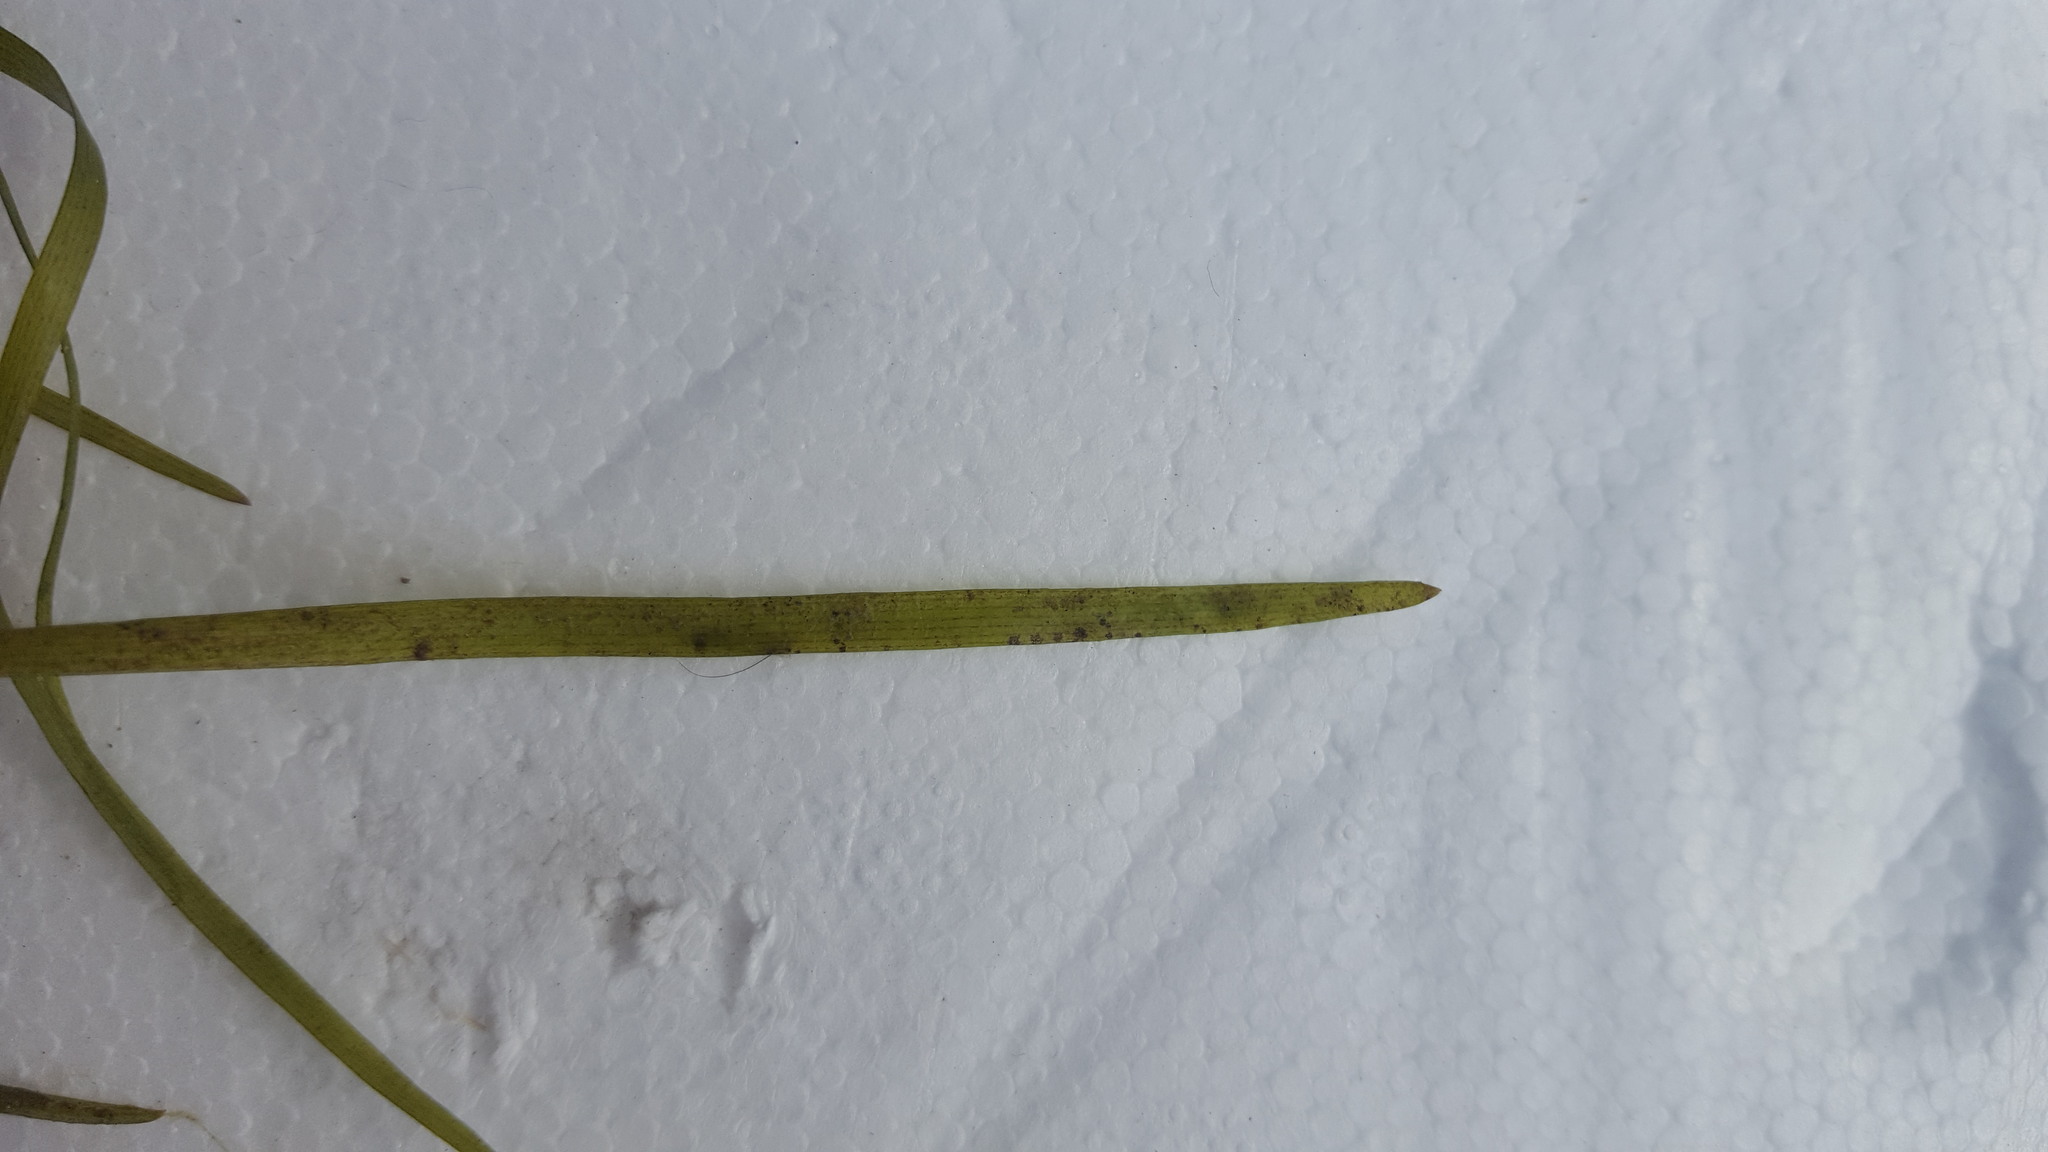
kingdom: Plantae
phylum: Tracheophyta
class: Liliopsida
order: Commelinales
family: Pontederiaceae
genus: Heteranthera
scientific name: Heteranthera dubia
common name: Grass-leaved mud plantain
